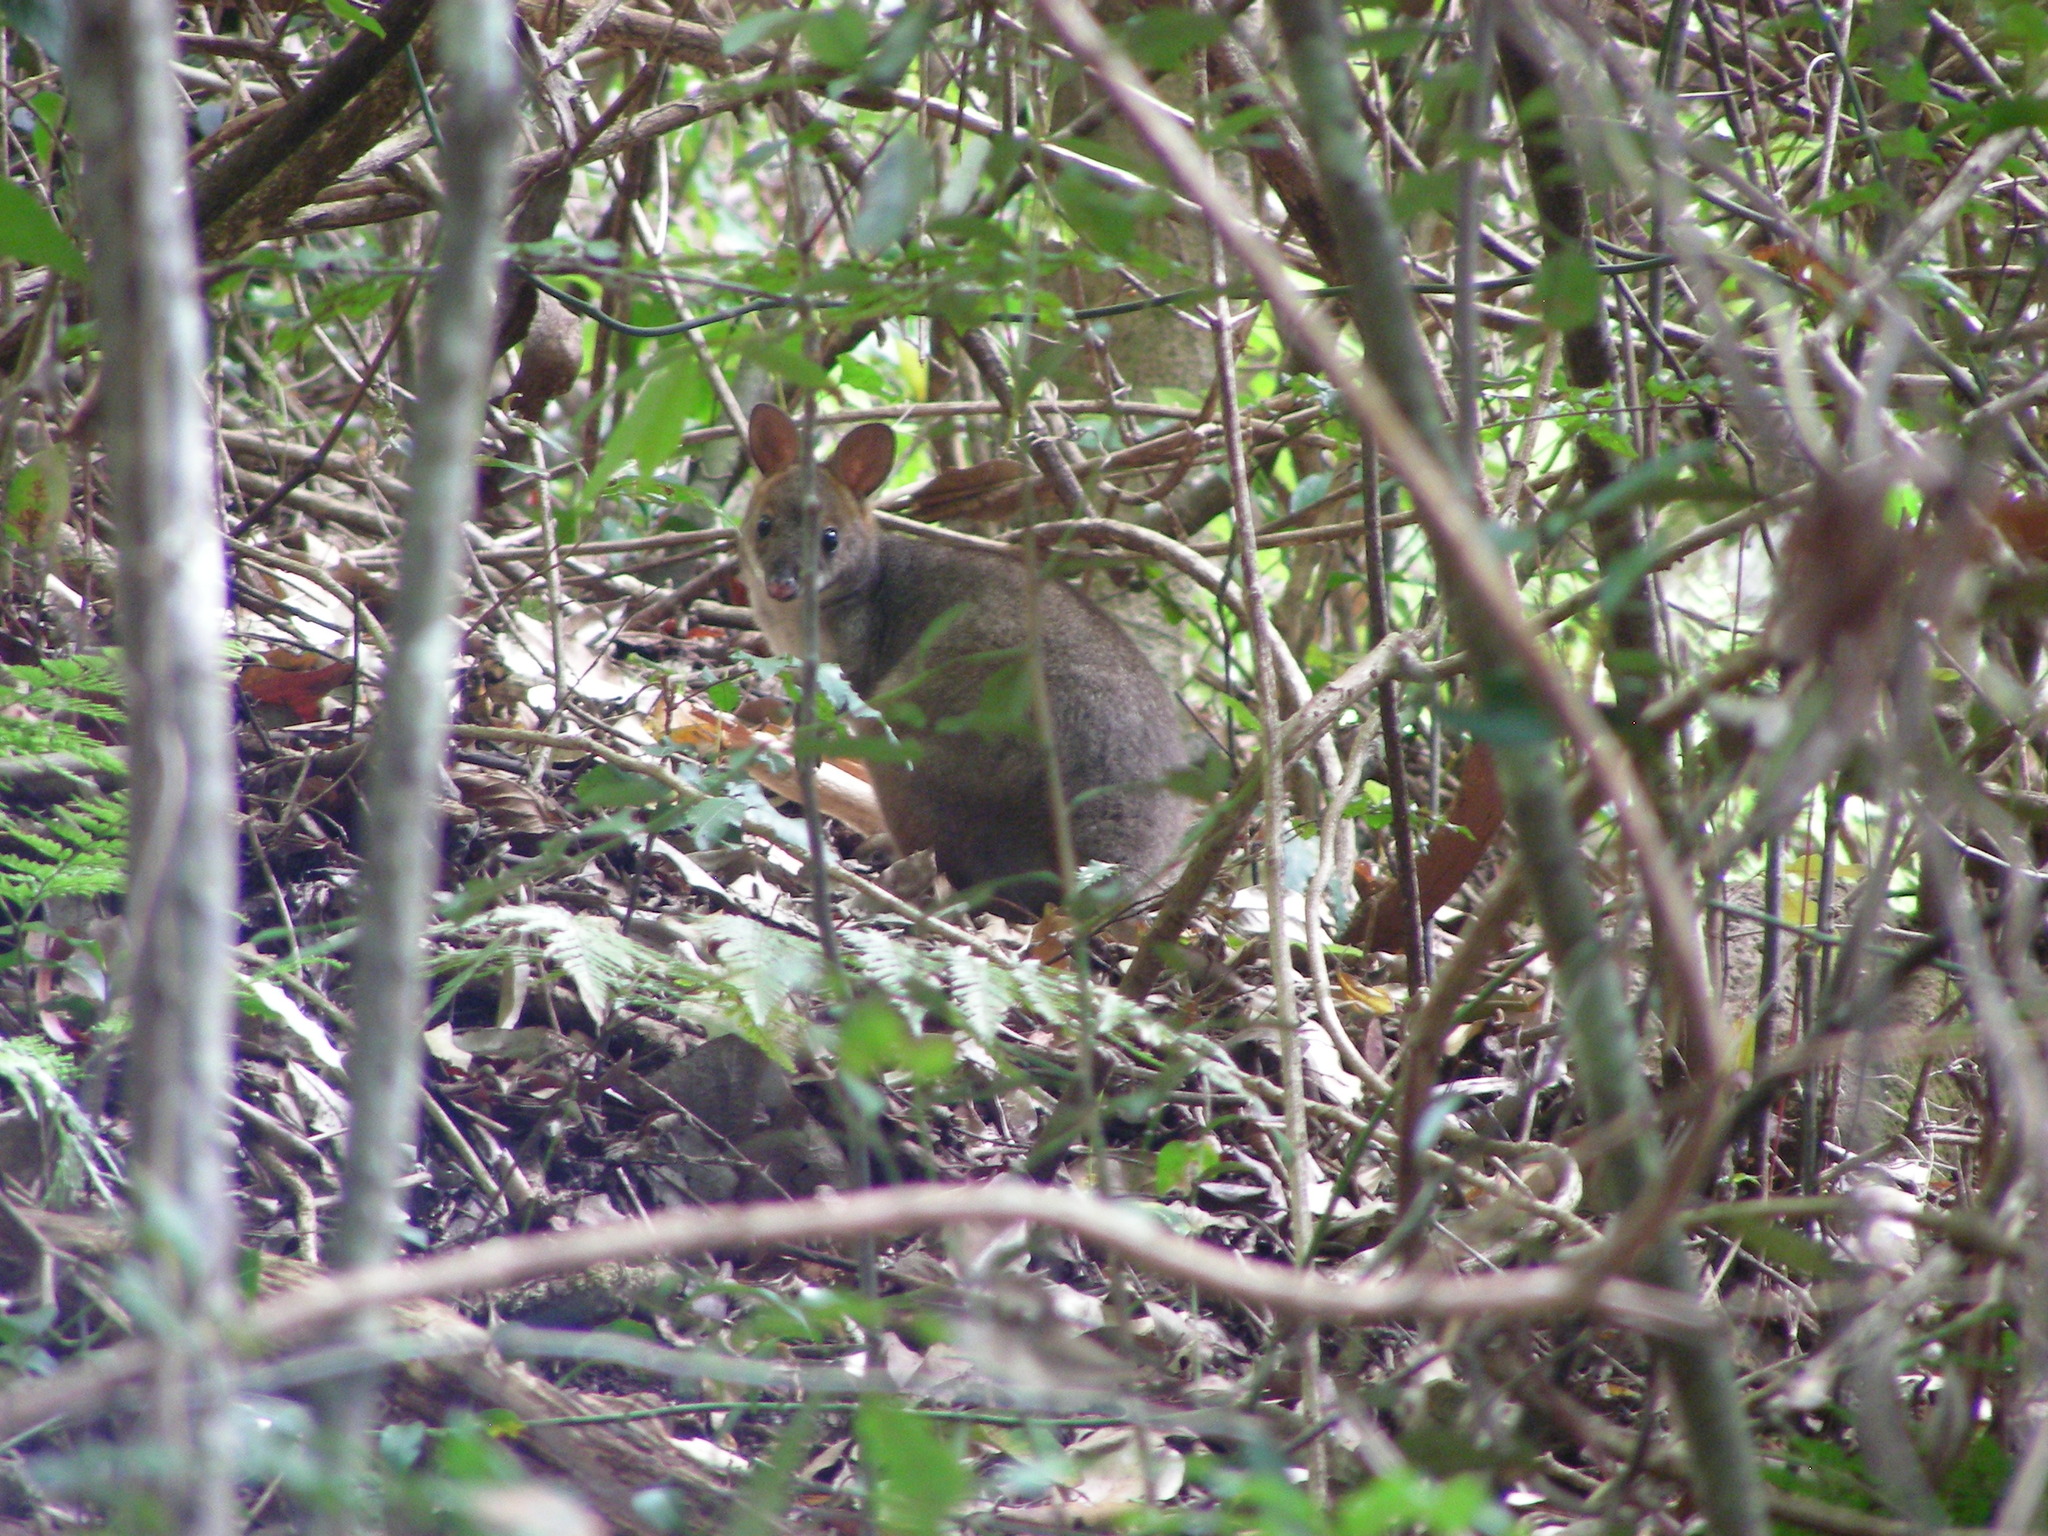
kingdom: Animalia
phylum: Chordata
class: Mammalia
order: Diprotodontia
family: Macropodidae
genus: Thylogale
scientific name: Thylogale stigmatica
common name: Red-legged pademelon
